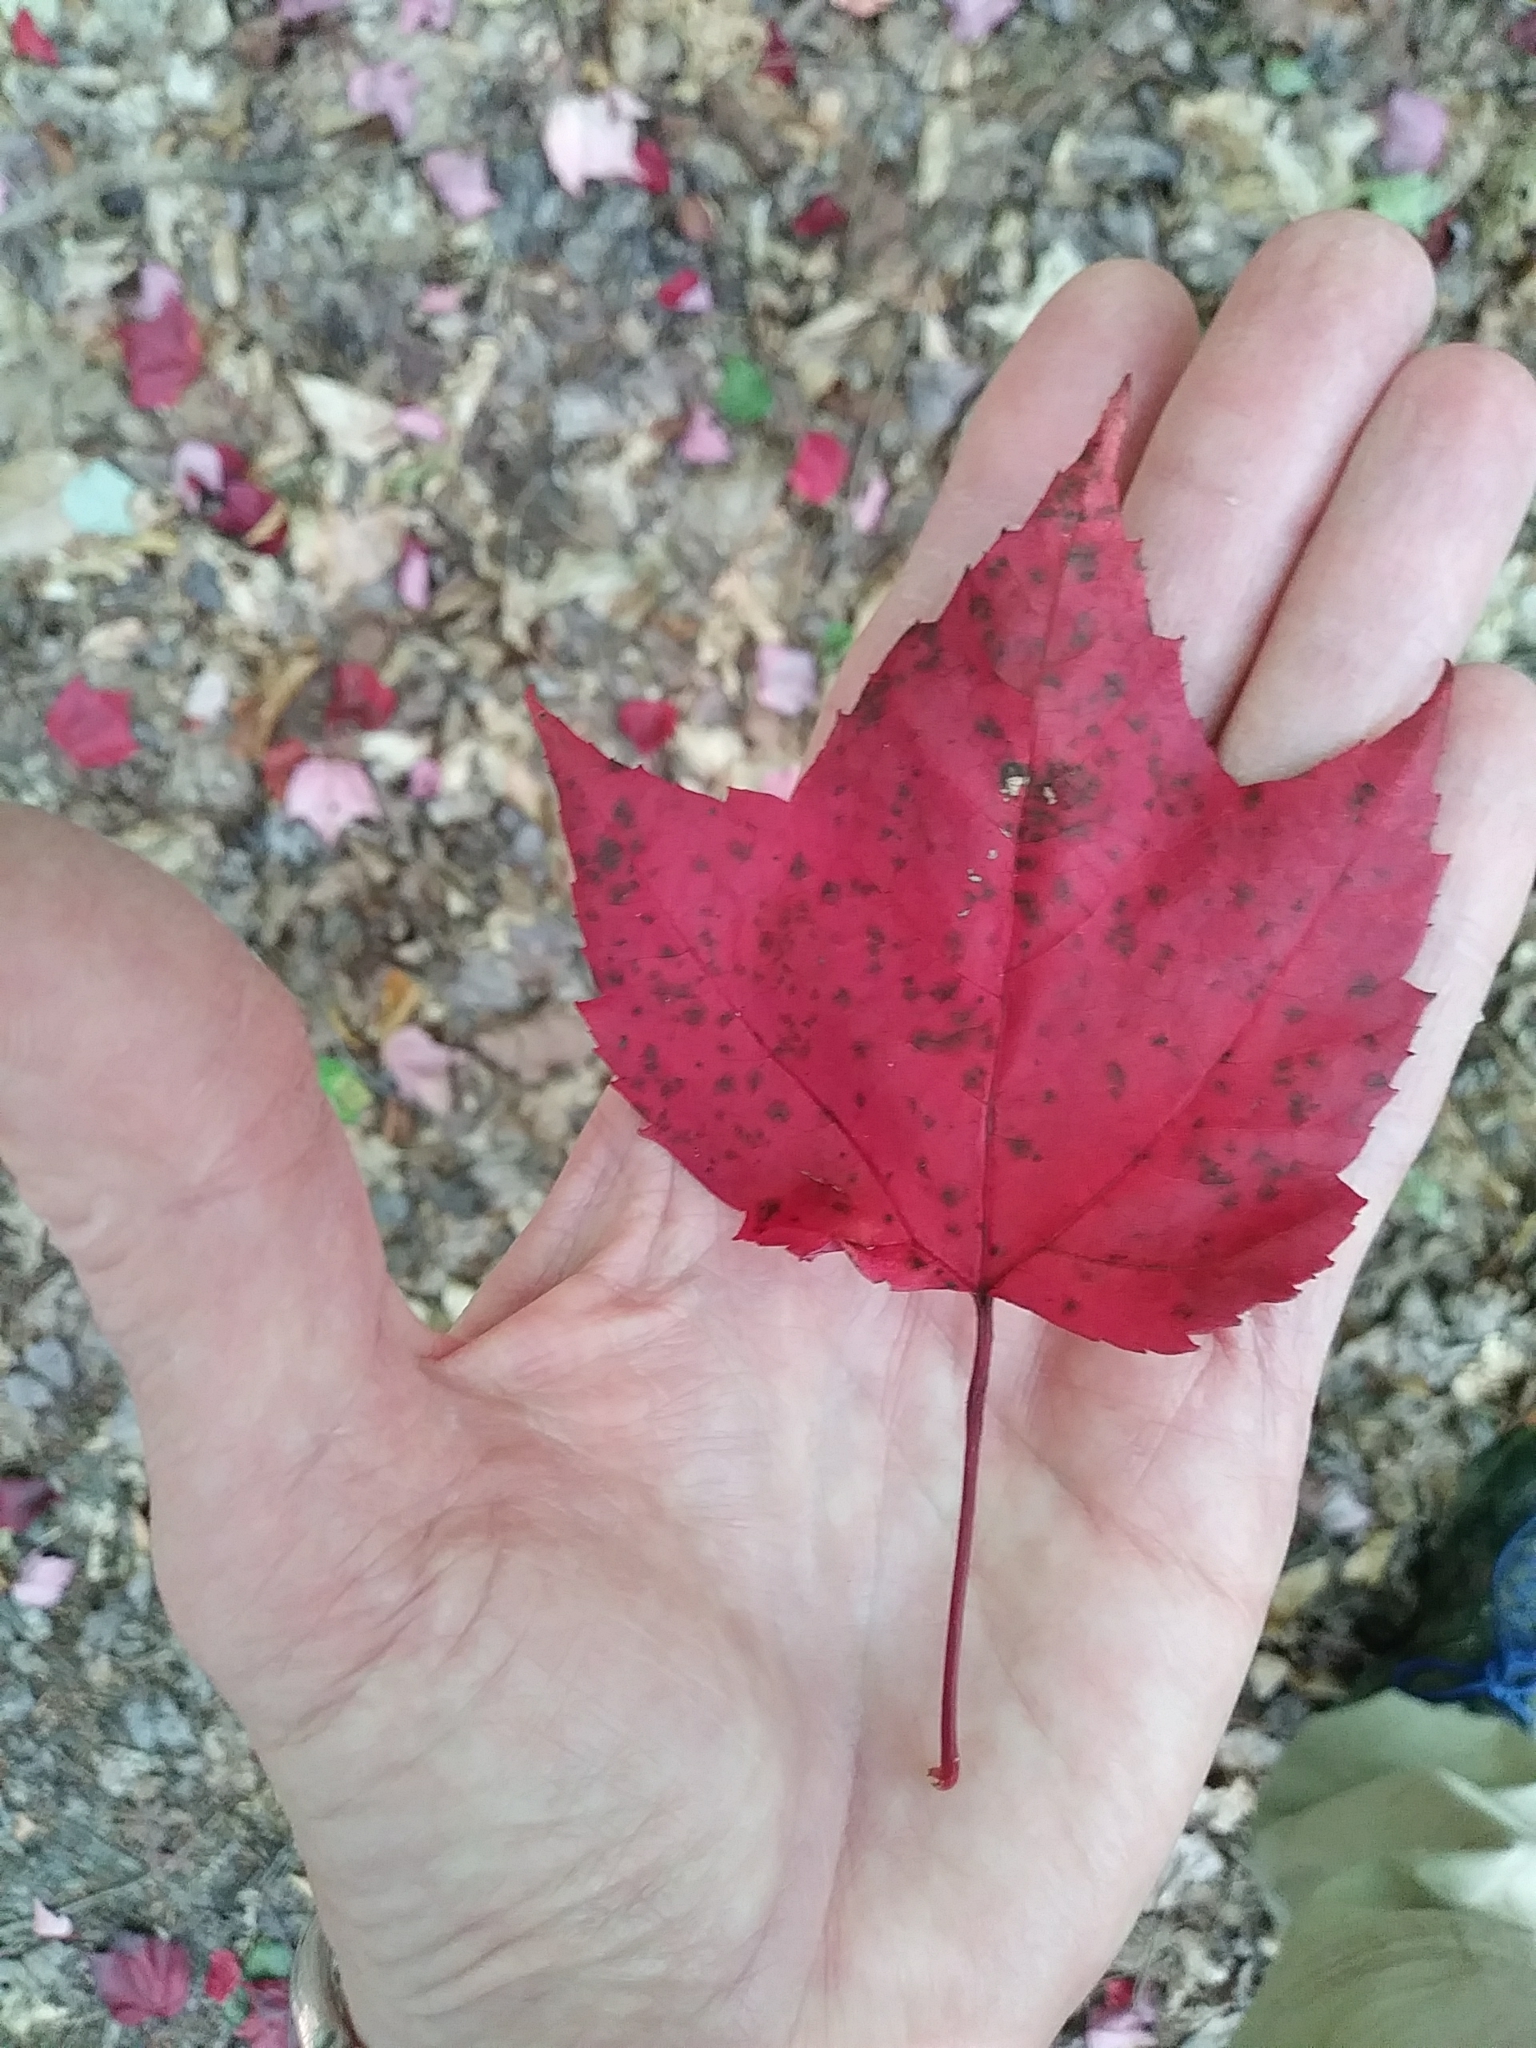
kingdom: Plantae
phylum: Tracheophyta
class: Magnoliopsida
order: Sapindales
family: Sapindaceae
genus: Acer
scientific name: Acer rubrum
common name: Red maple
